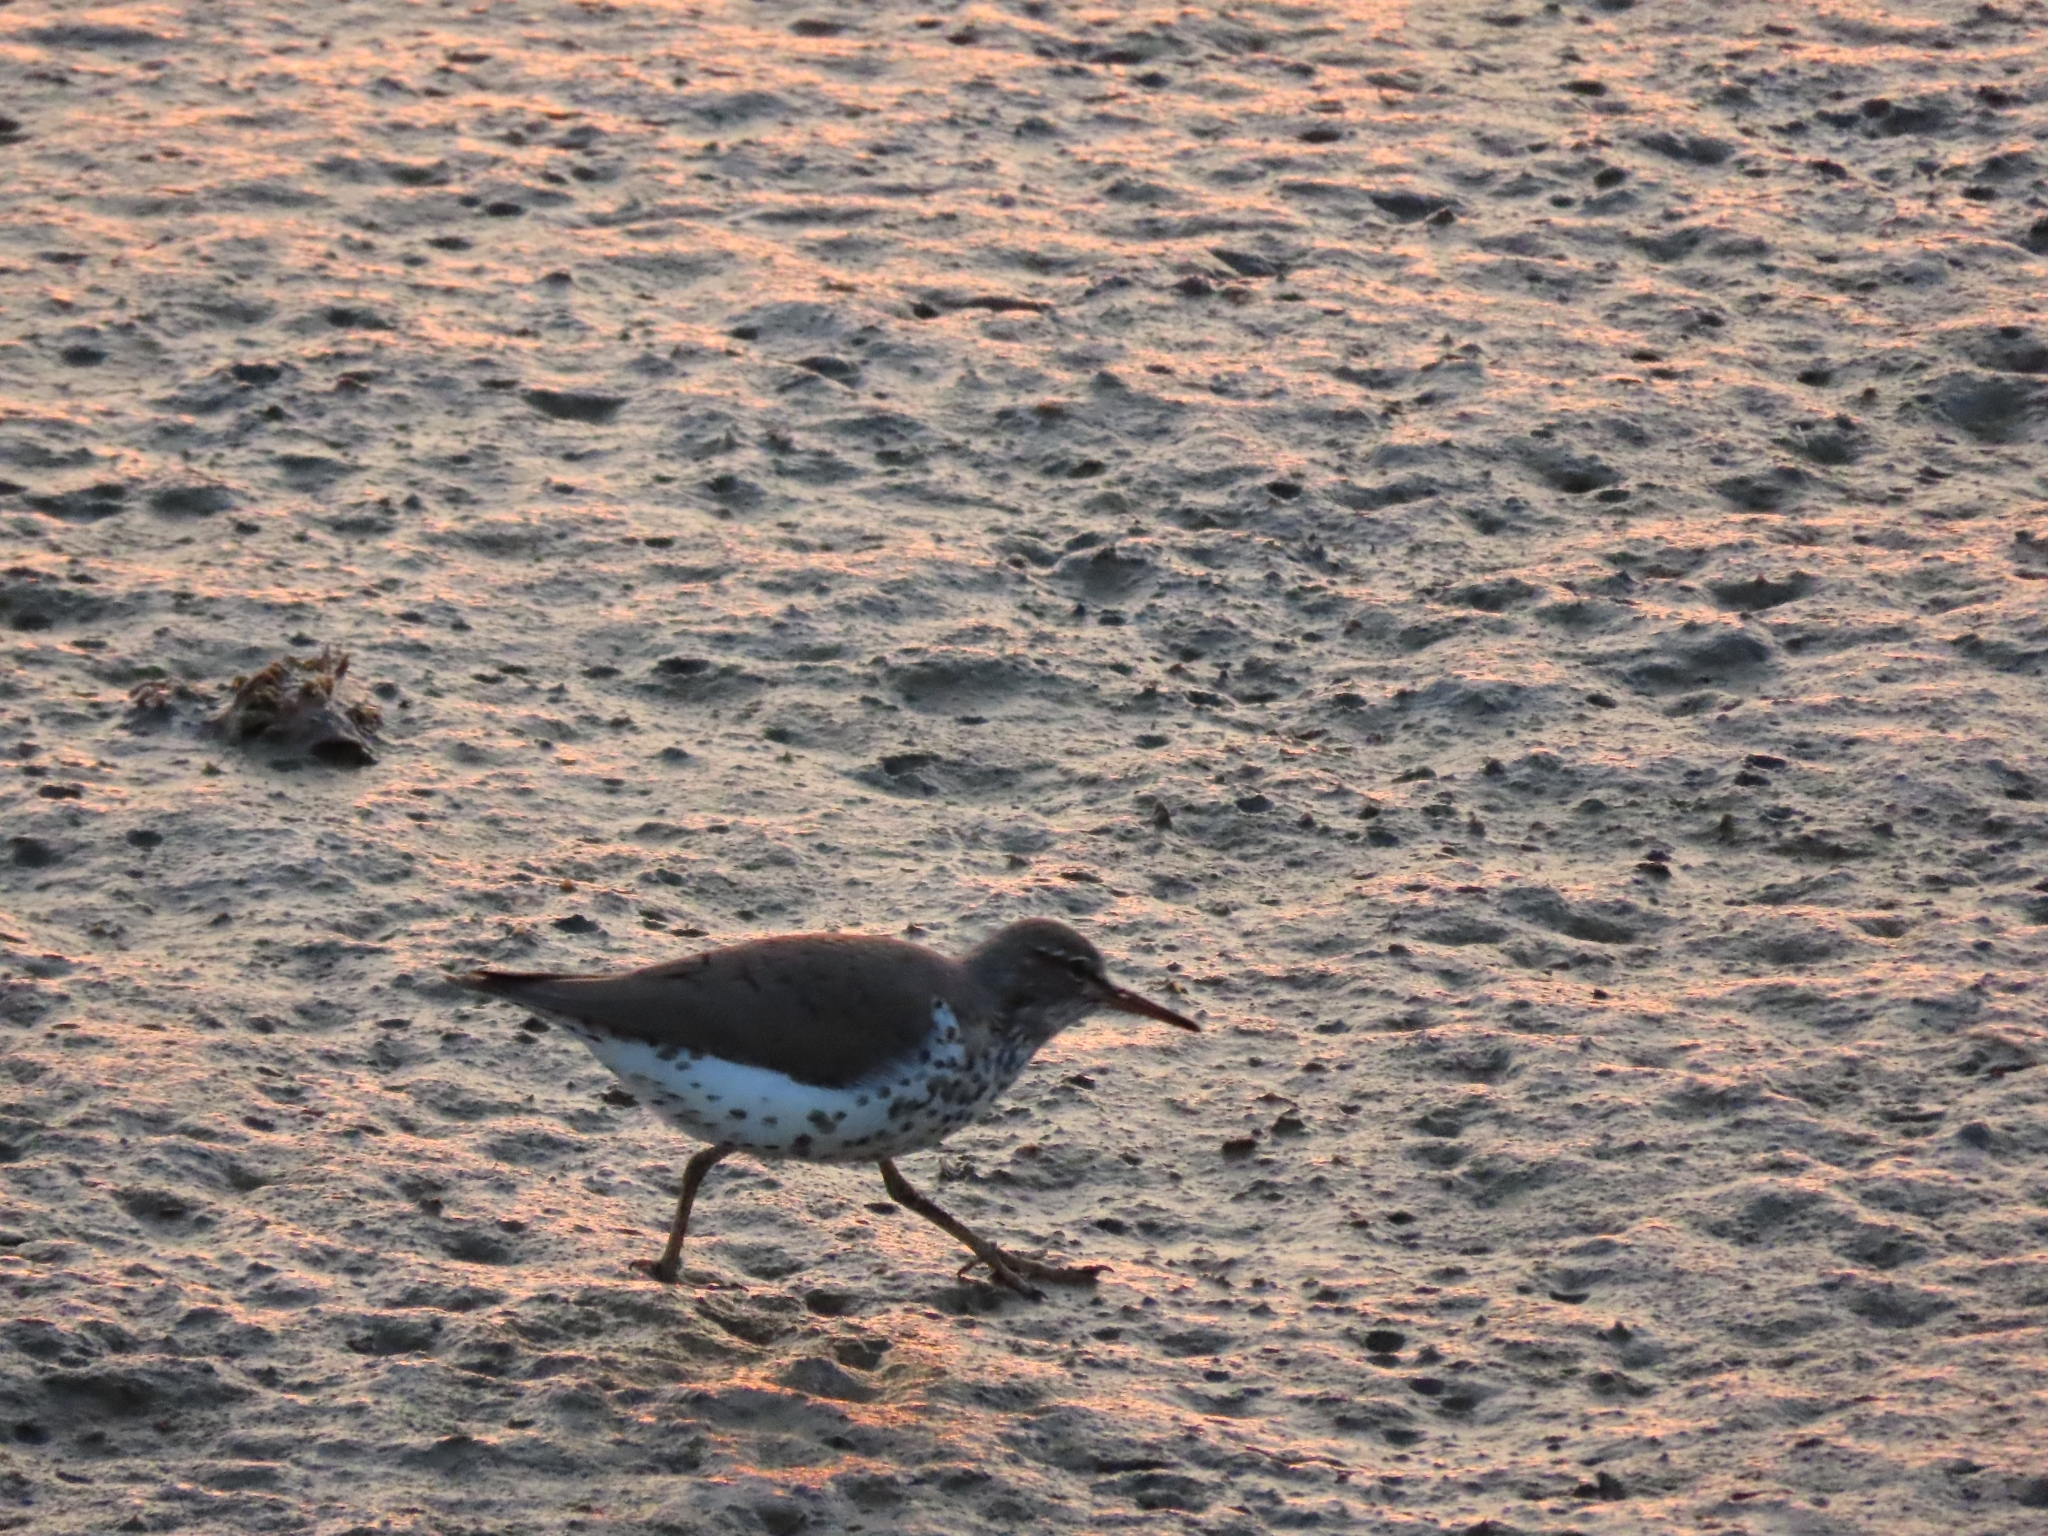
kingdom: Animalia
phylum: Chordata
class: Aves
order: Charadriiformes
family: Scolopacidae
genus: Actitis
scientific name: Actitis macularius
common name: Spotted sandpiper
